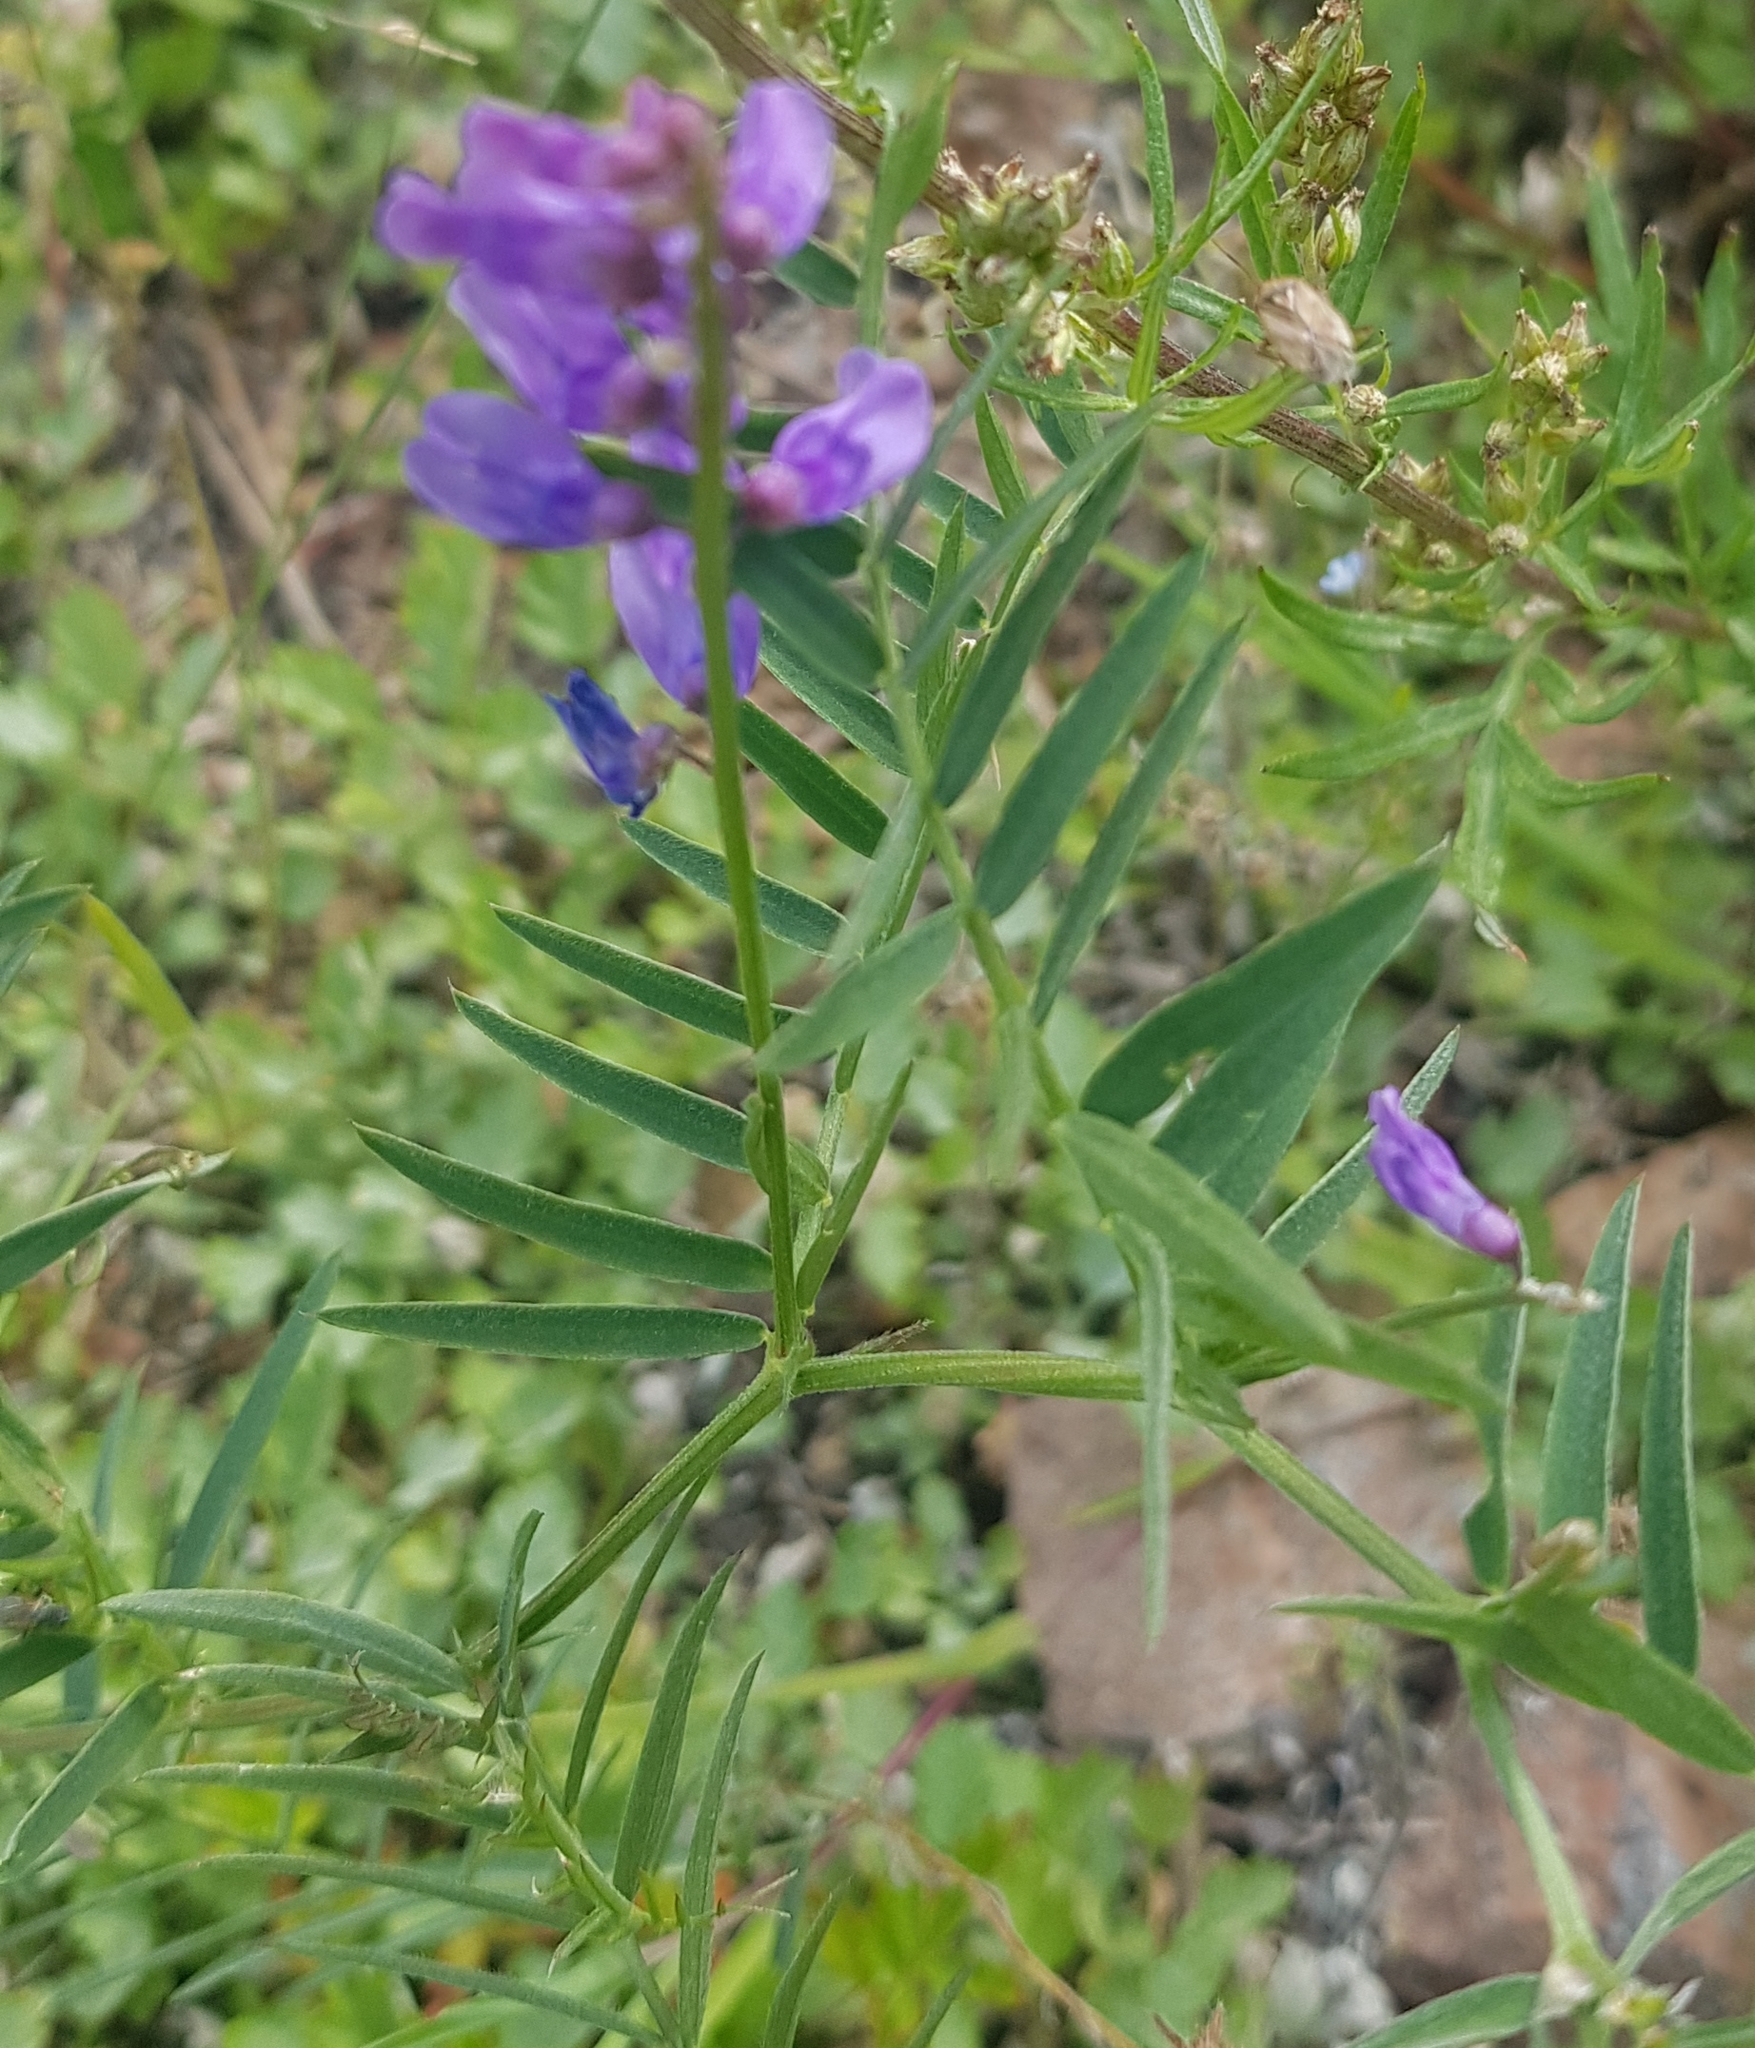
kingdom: Plantae
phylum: Tracheophyta
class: Magnoliopsida
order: Fabales
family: Fabaceae
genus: Vicia
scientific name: Vicia tenuifolia
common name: Fine-leaved vetch
